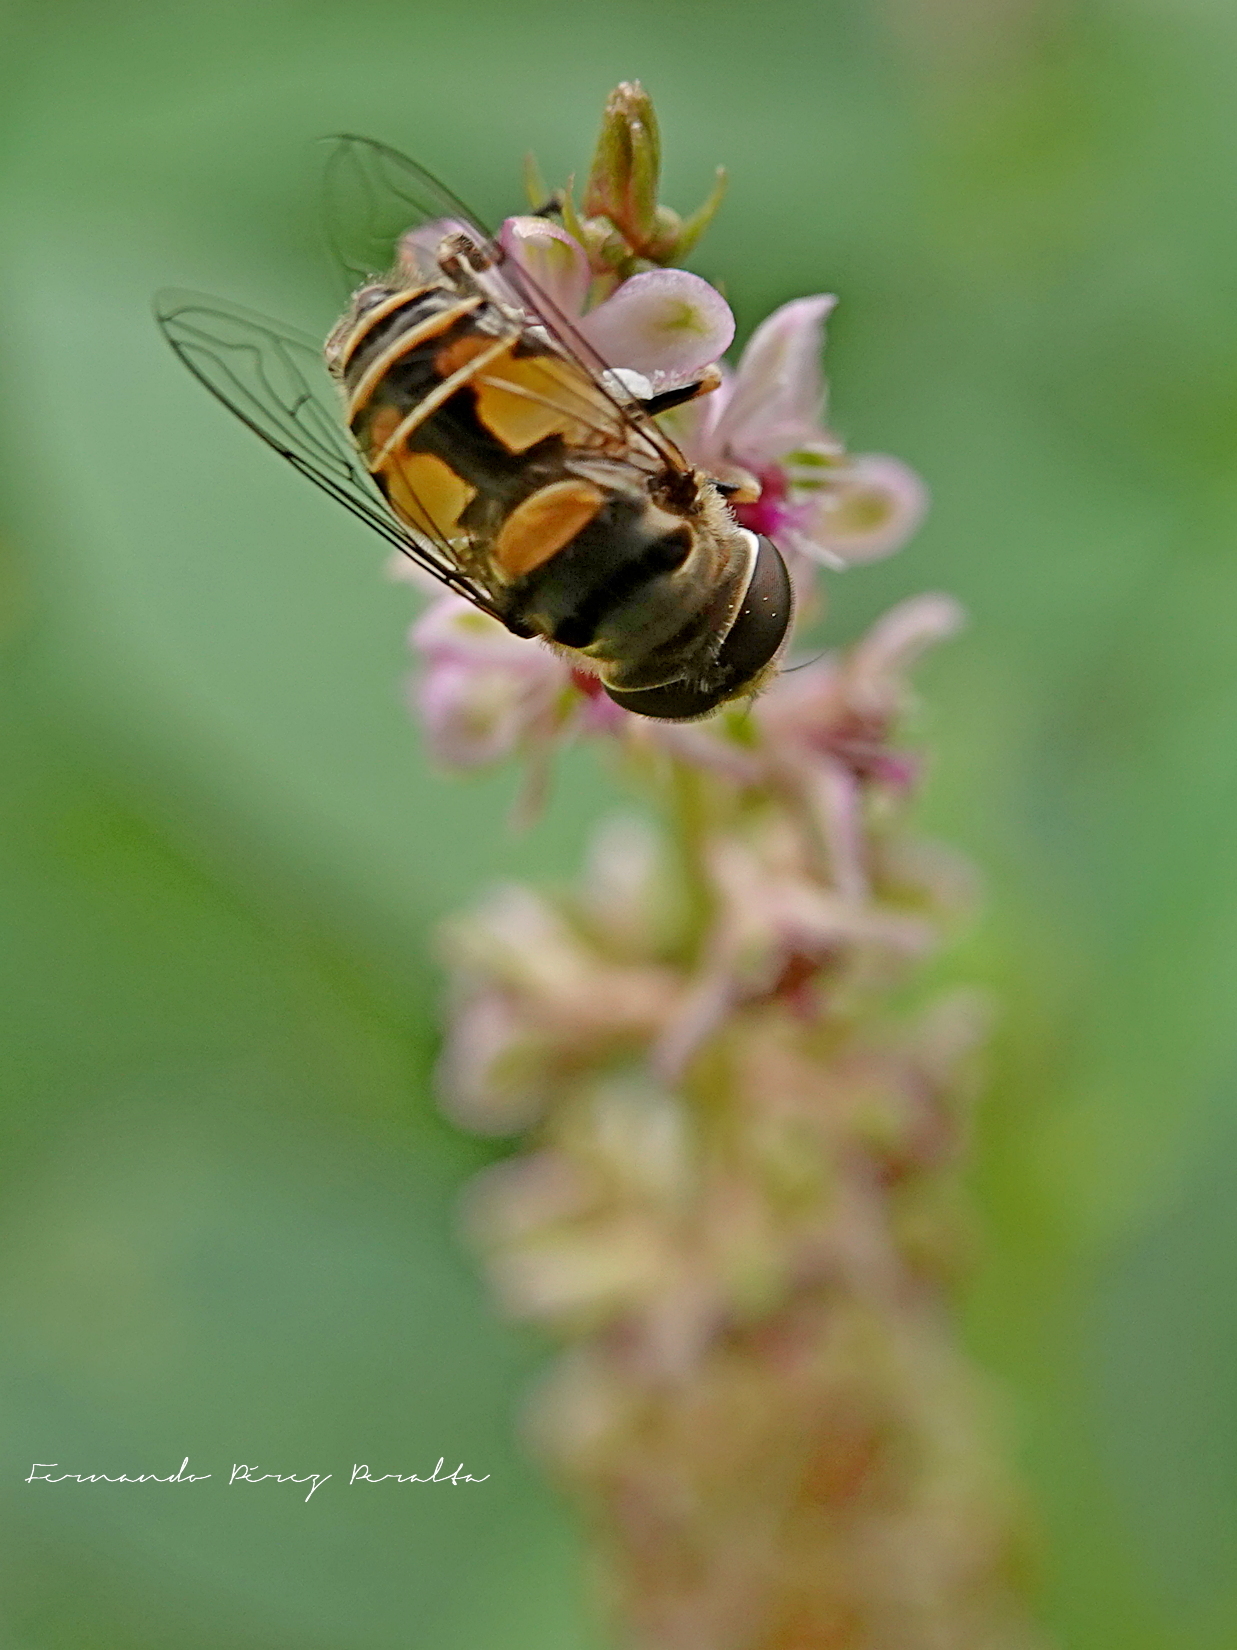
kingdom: Animalia
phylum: Arthropoda
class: Insecta
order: Diptera
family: Syrphidae
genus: Palpada
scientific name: Palpada alhambra
